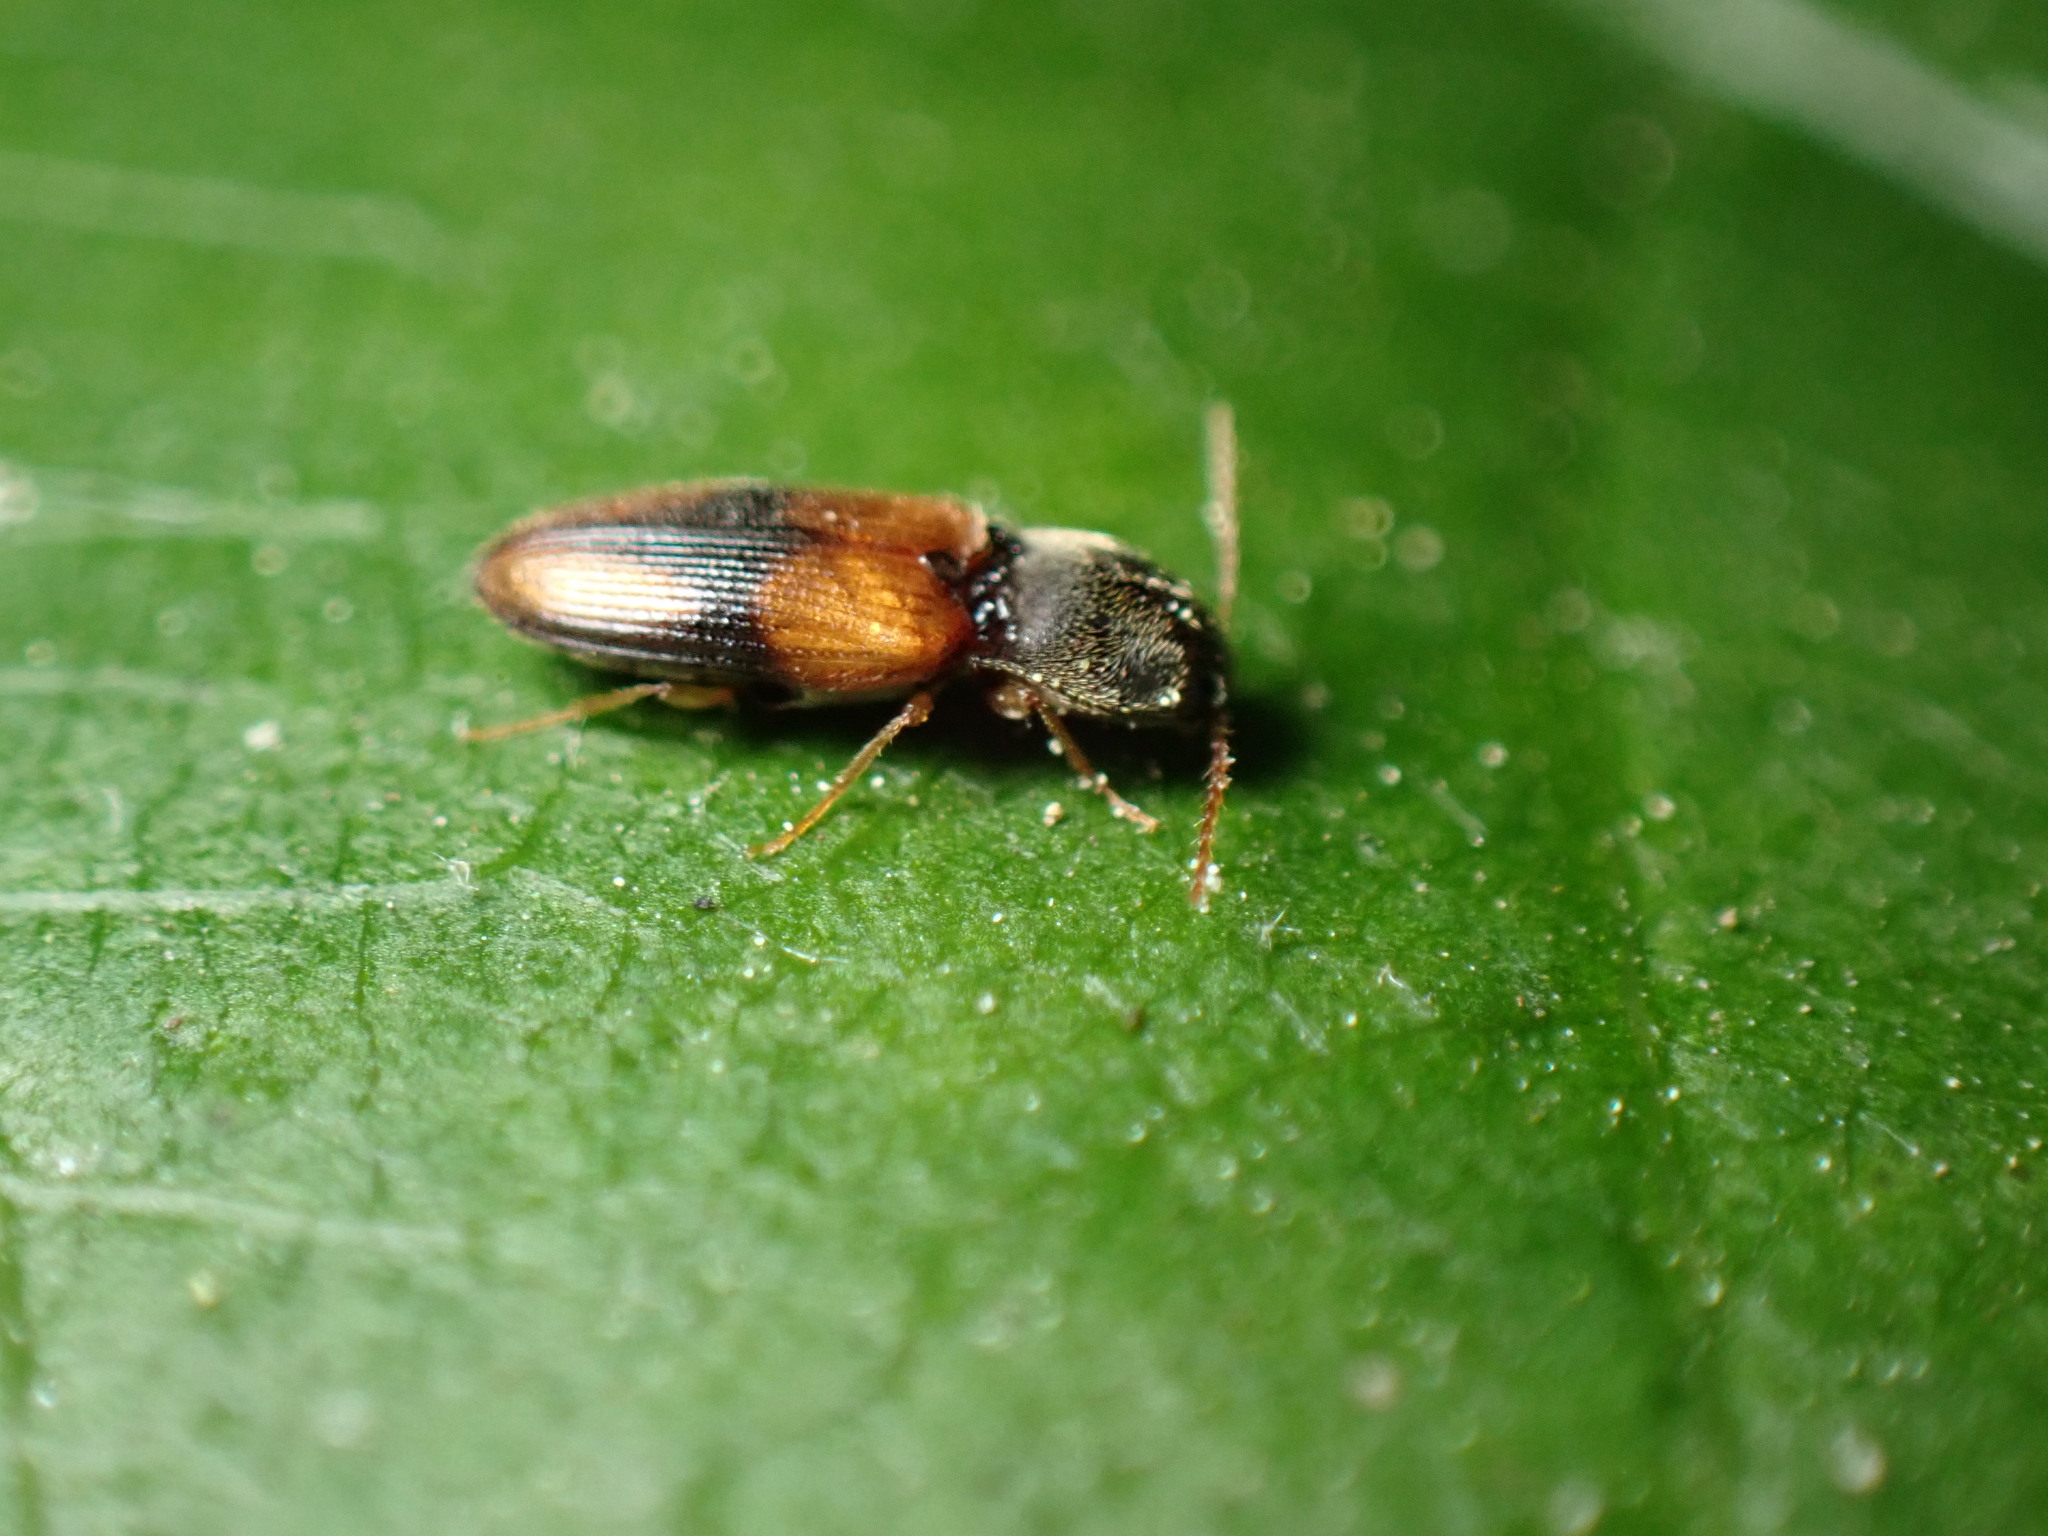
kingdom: Animalia
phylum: Arthropoda
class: Insecta
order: Coleoptera
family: Elateridae
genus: Horistonotus
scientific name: Horistonotus curiatus
